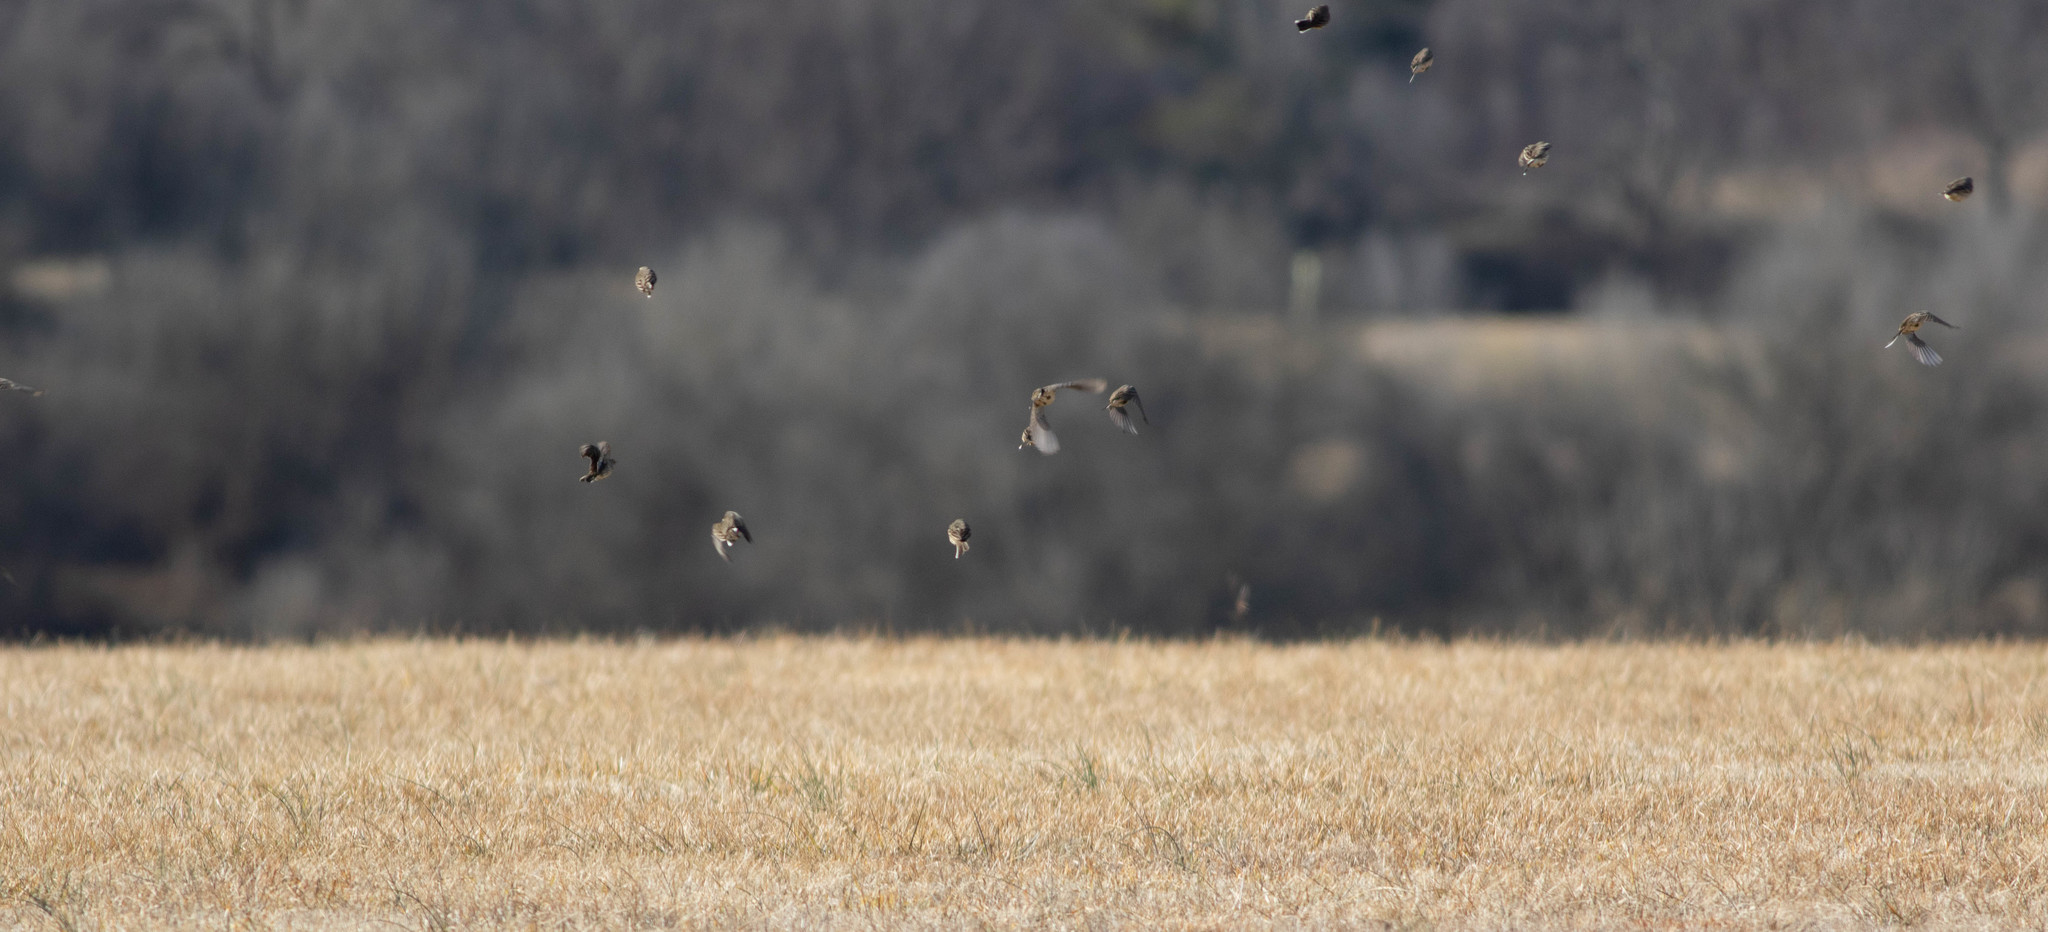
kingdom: Animalia
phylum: Chordata
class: Aves
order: Passeriformes
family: Motacillidae
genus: Anthus
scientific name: Anthus rubescens
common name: Buff-bellied pipit
